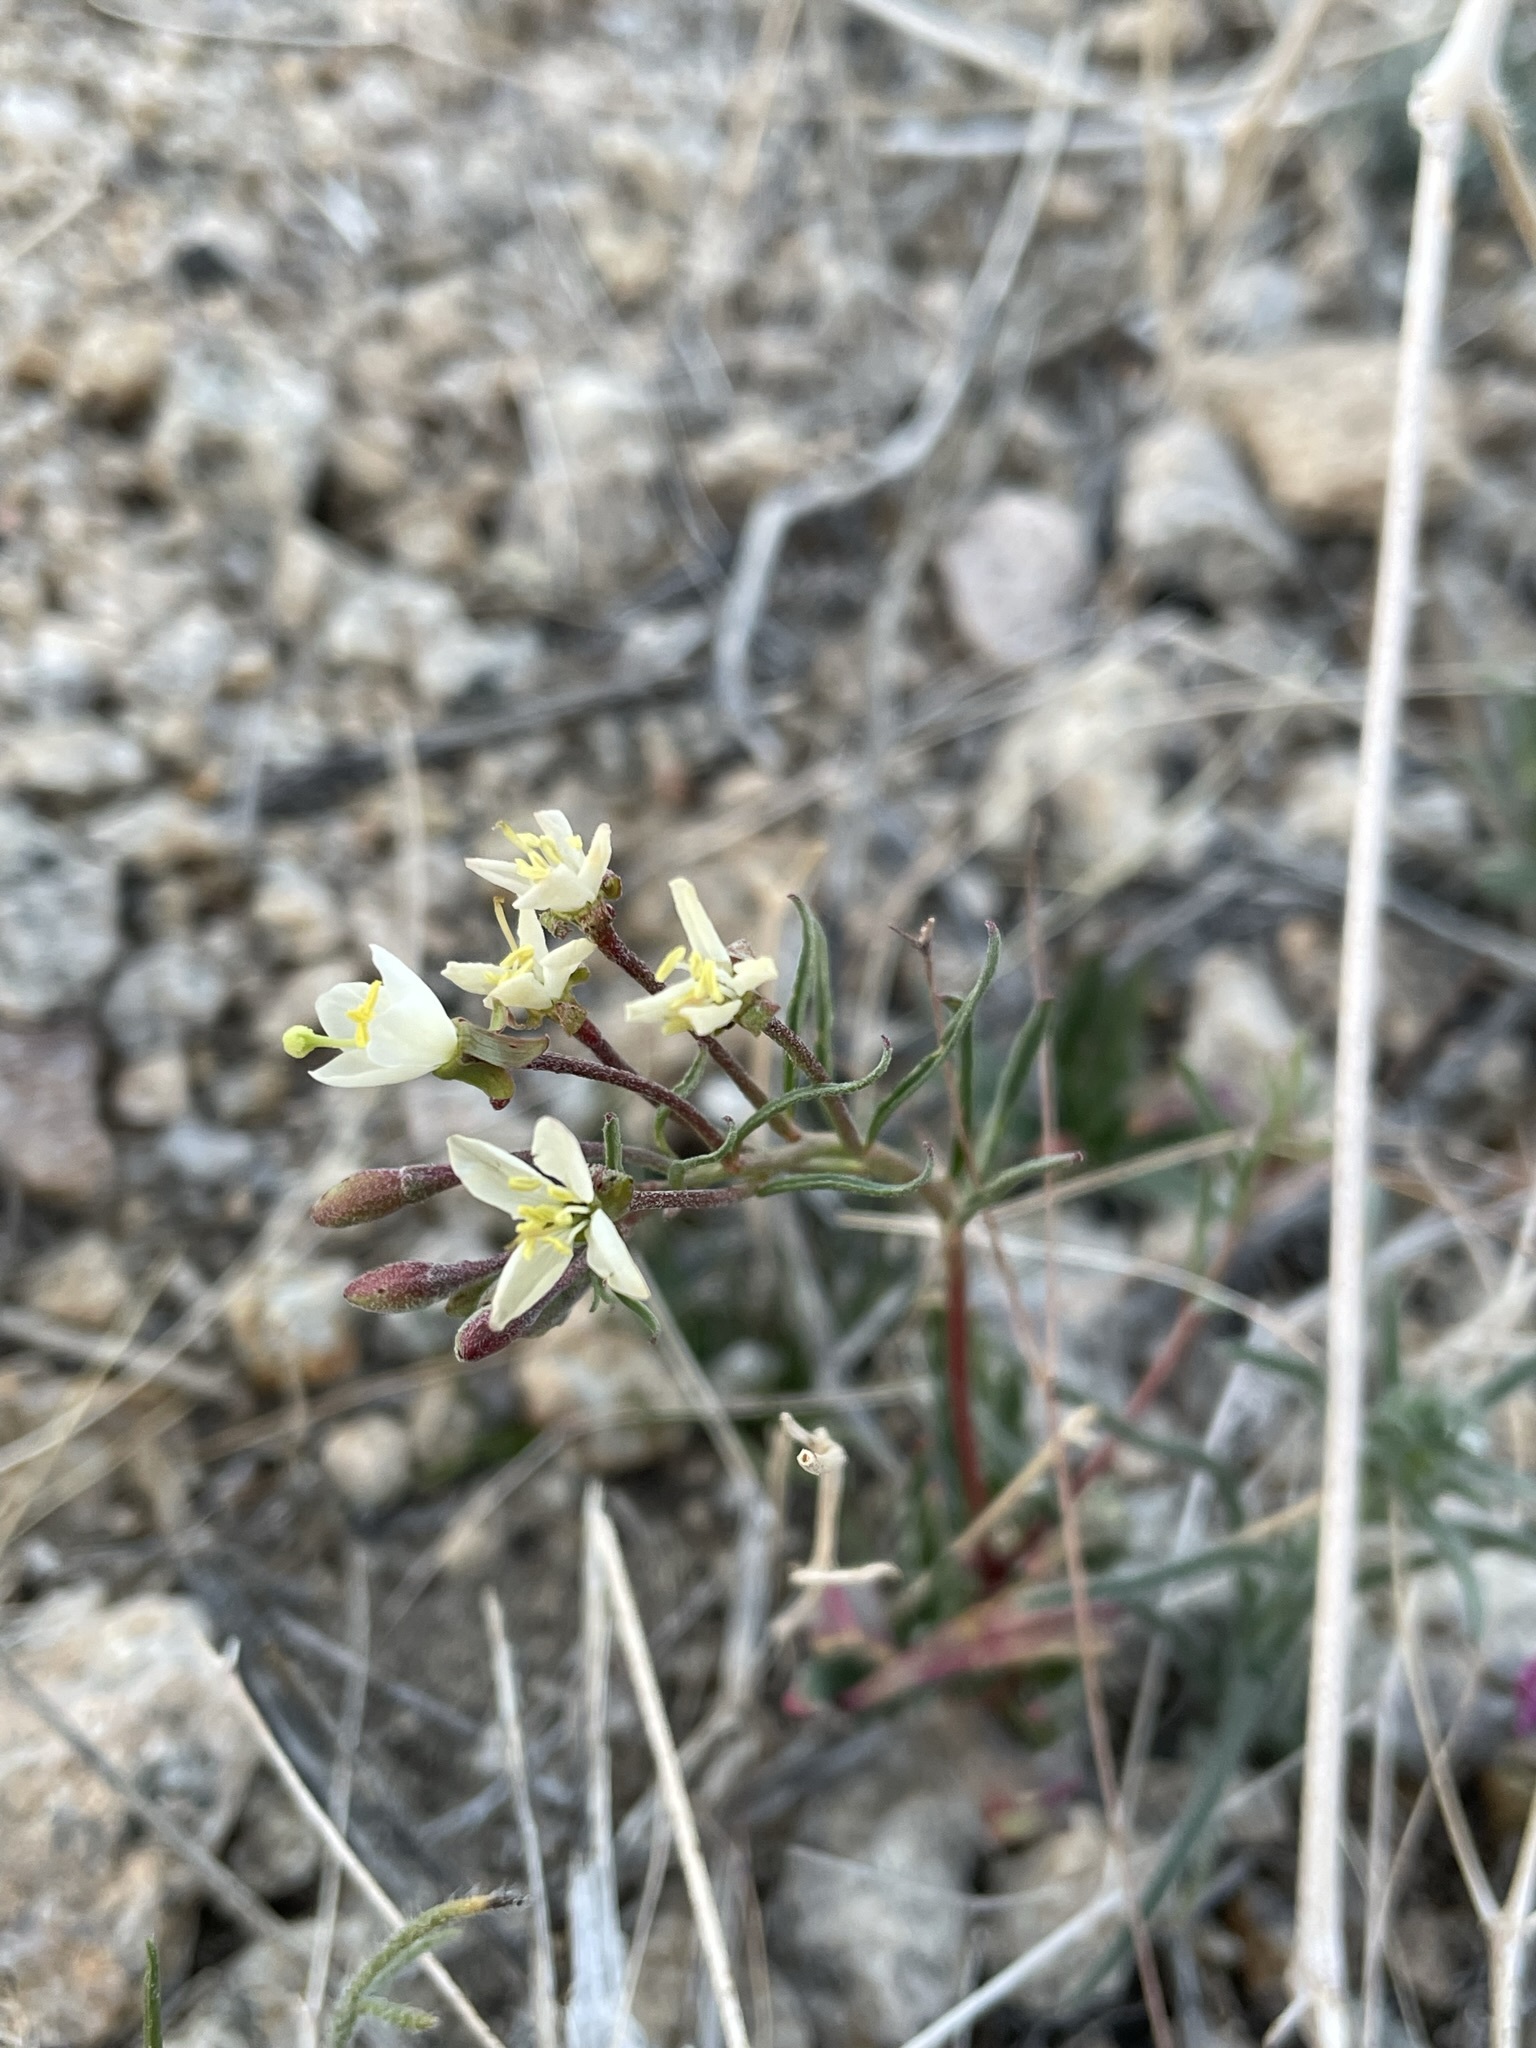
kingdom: Plantae
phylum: Tracheophyta
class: Magnoliopsida
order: Myrtales
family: Onagraceae
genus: Eremothera
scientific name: Eremothera refracta
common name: Narrowleaf suncup
